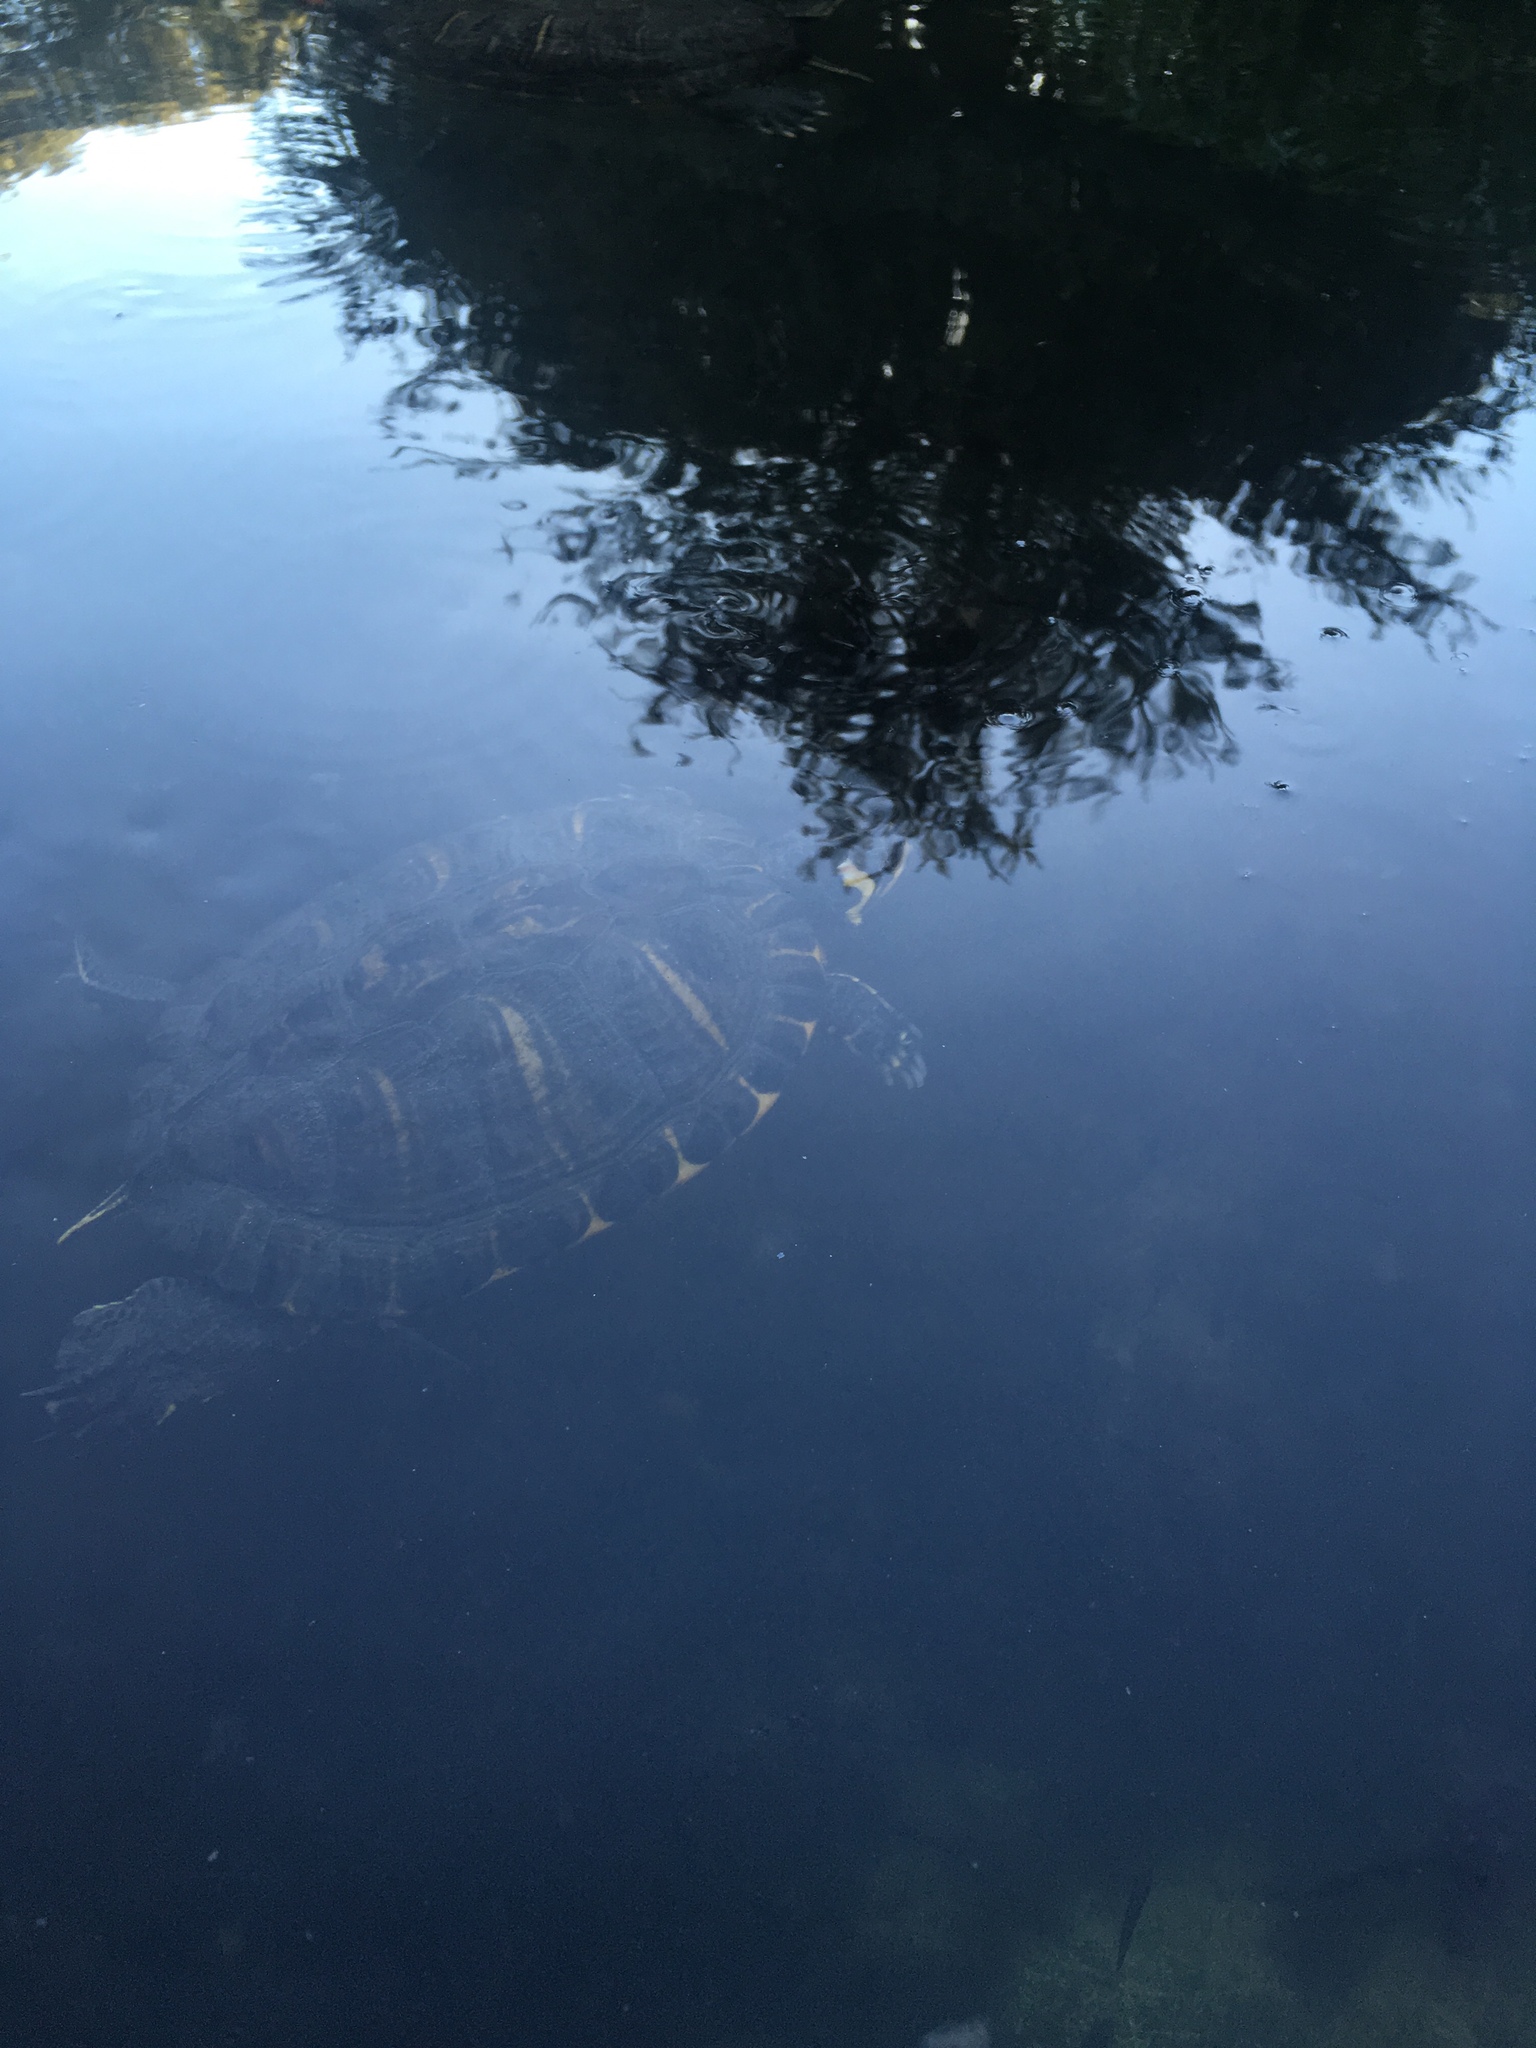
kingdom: Animalia
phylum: Chordata
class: Testudines
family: Emydidae
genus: Trachemys
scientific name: Trachemys scripta
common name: Slider
